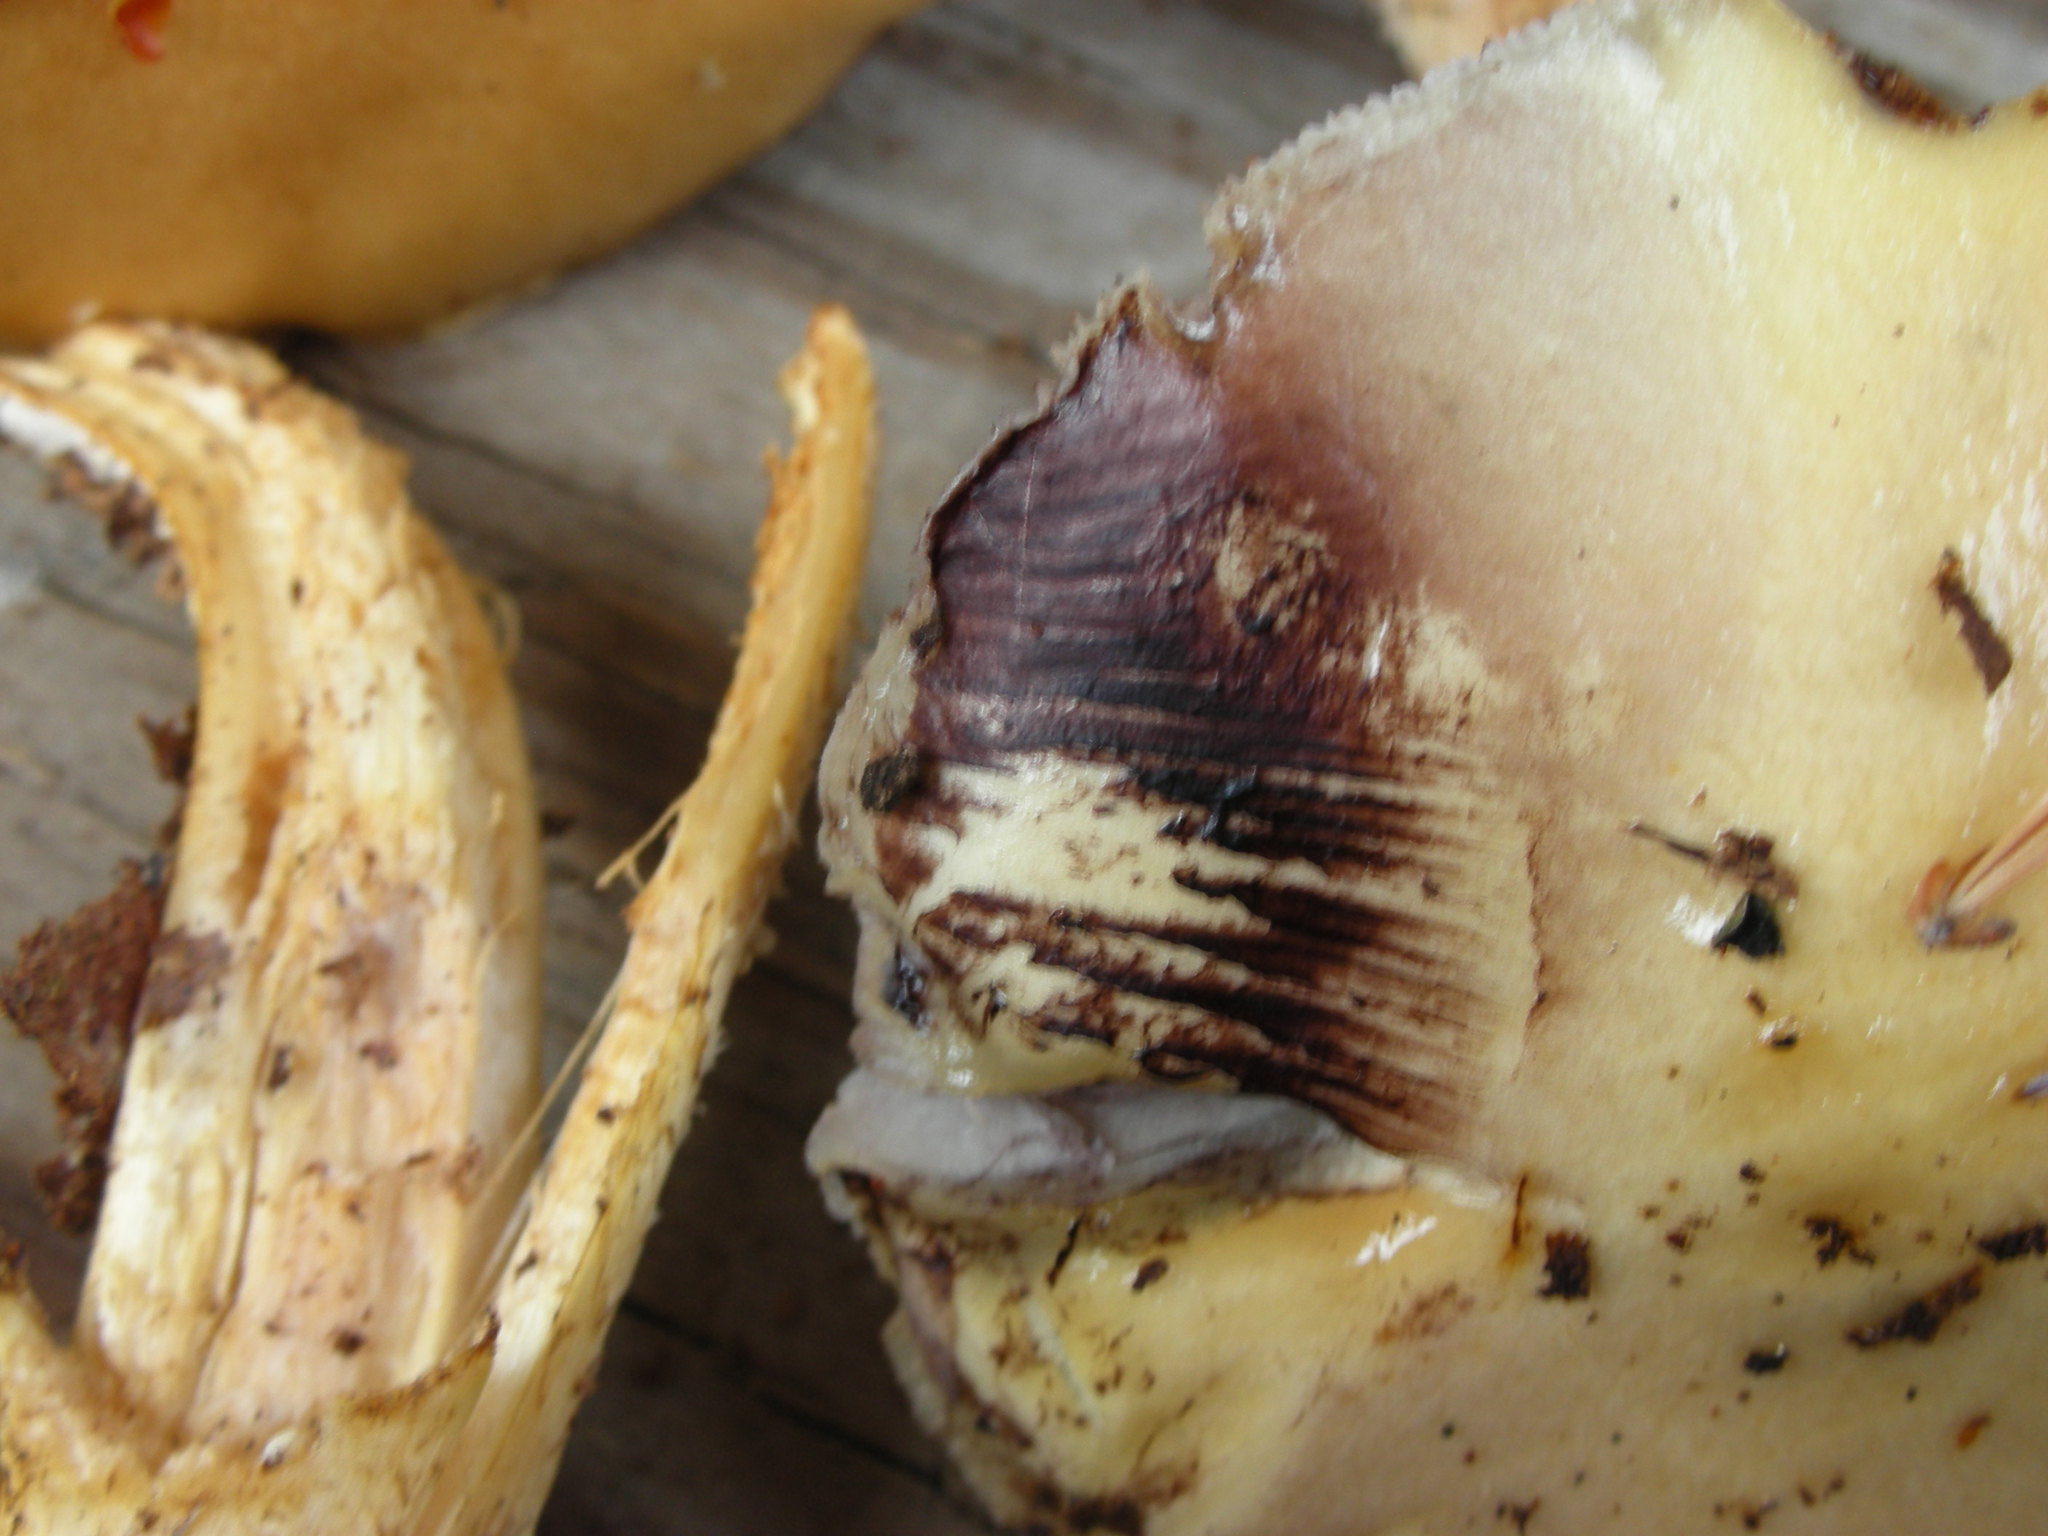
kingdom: Fungi
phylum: Basidiomycota
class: Agaricomycetes
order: Agaricales
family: Strophariaceae
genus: Stropharia
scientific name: Stropharia hornemannii
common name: Conifer roundhead
